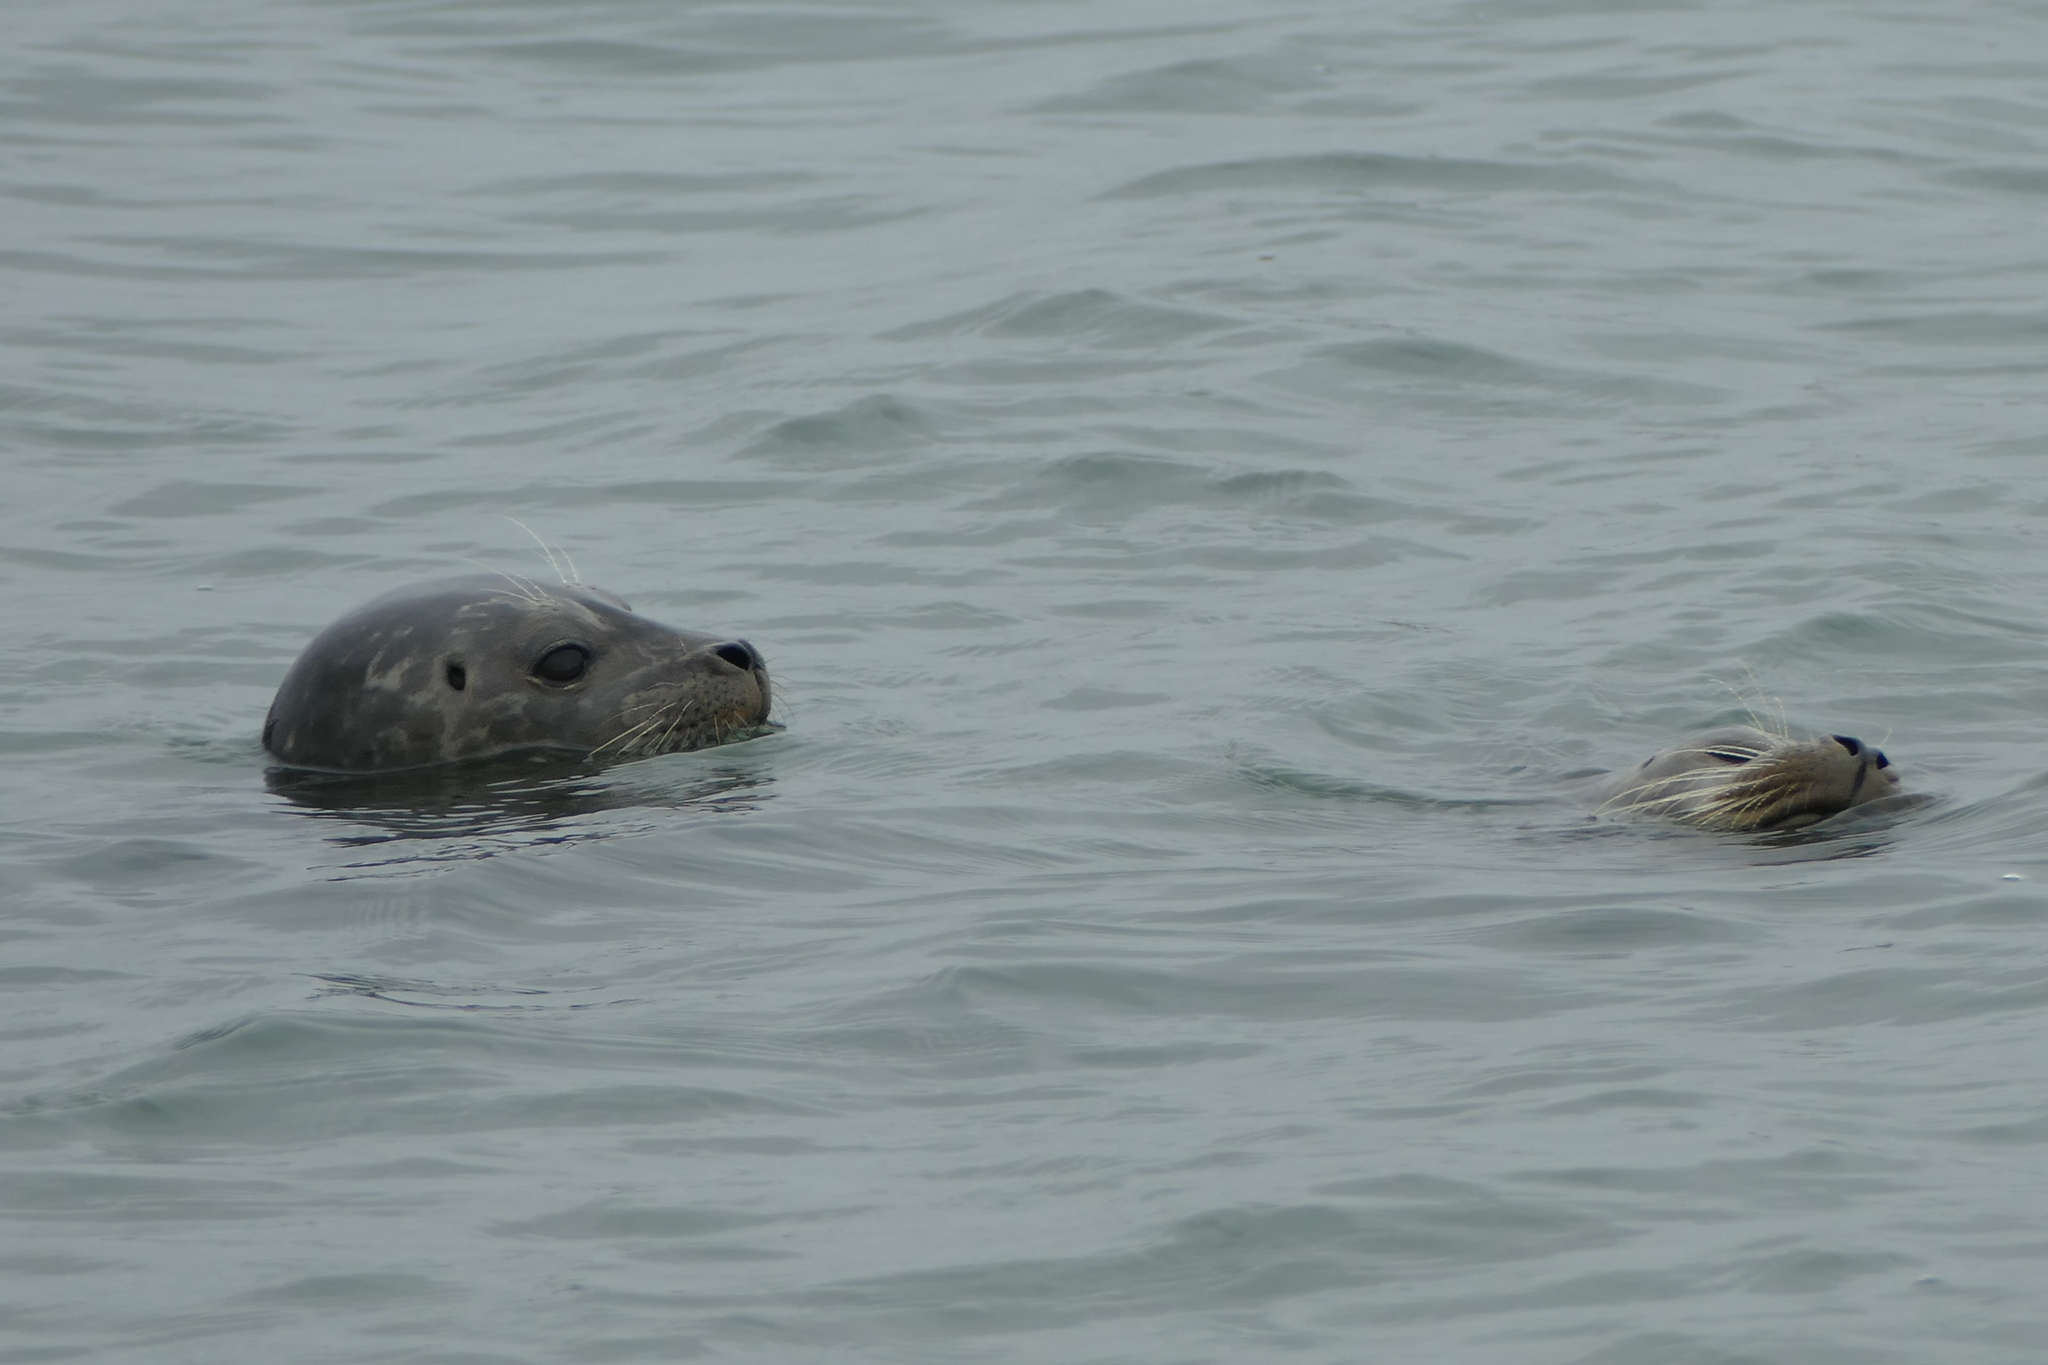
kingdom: Animalia
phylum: Chordata
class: Mammalia
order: Carnivora
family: Phocidae
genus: Phoca
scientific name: Phoca vitulina
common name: Harbor seal
